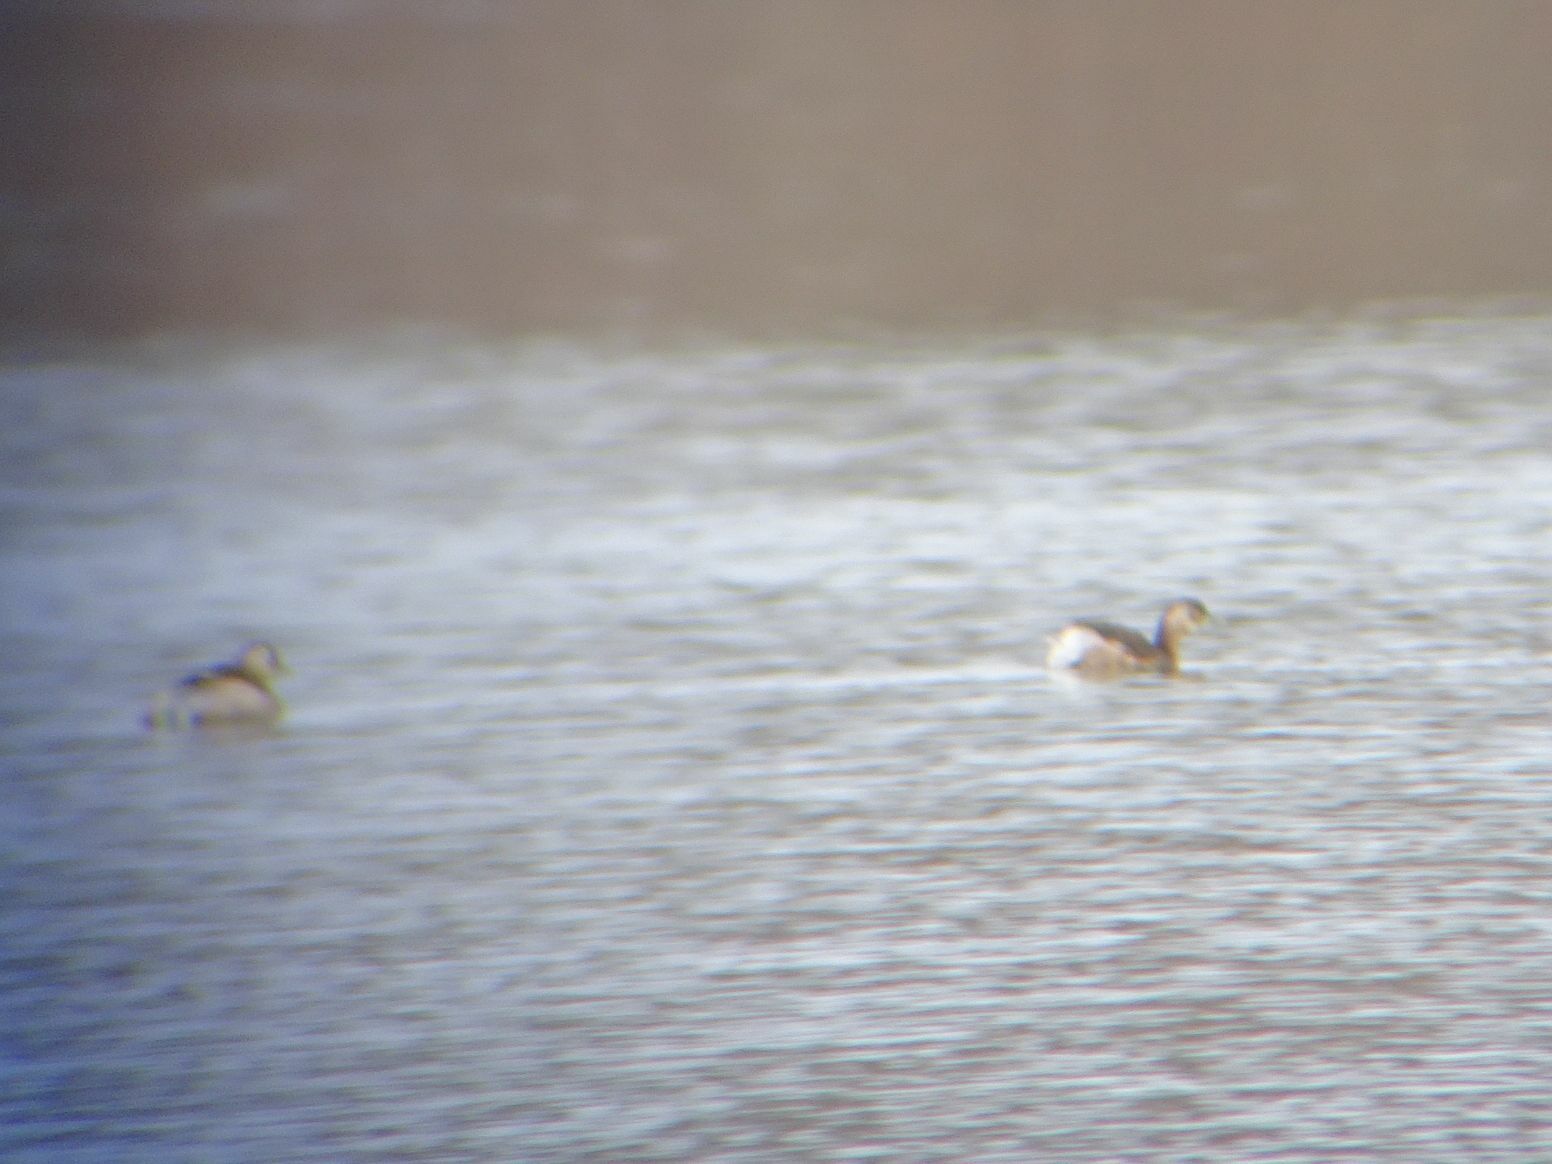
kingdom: Animalia
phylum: Chordata
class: Aves
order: Podicipediformes
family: Podicipedidae
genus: Tachybaptus
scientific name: Tachybaptus ruficollis
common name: Little grebe
